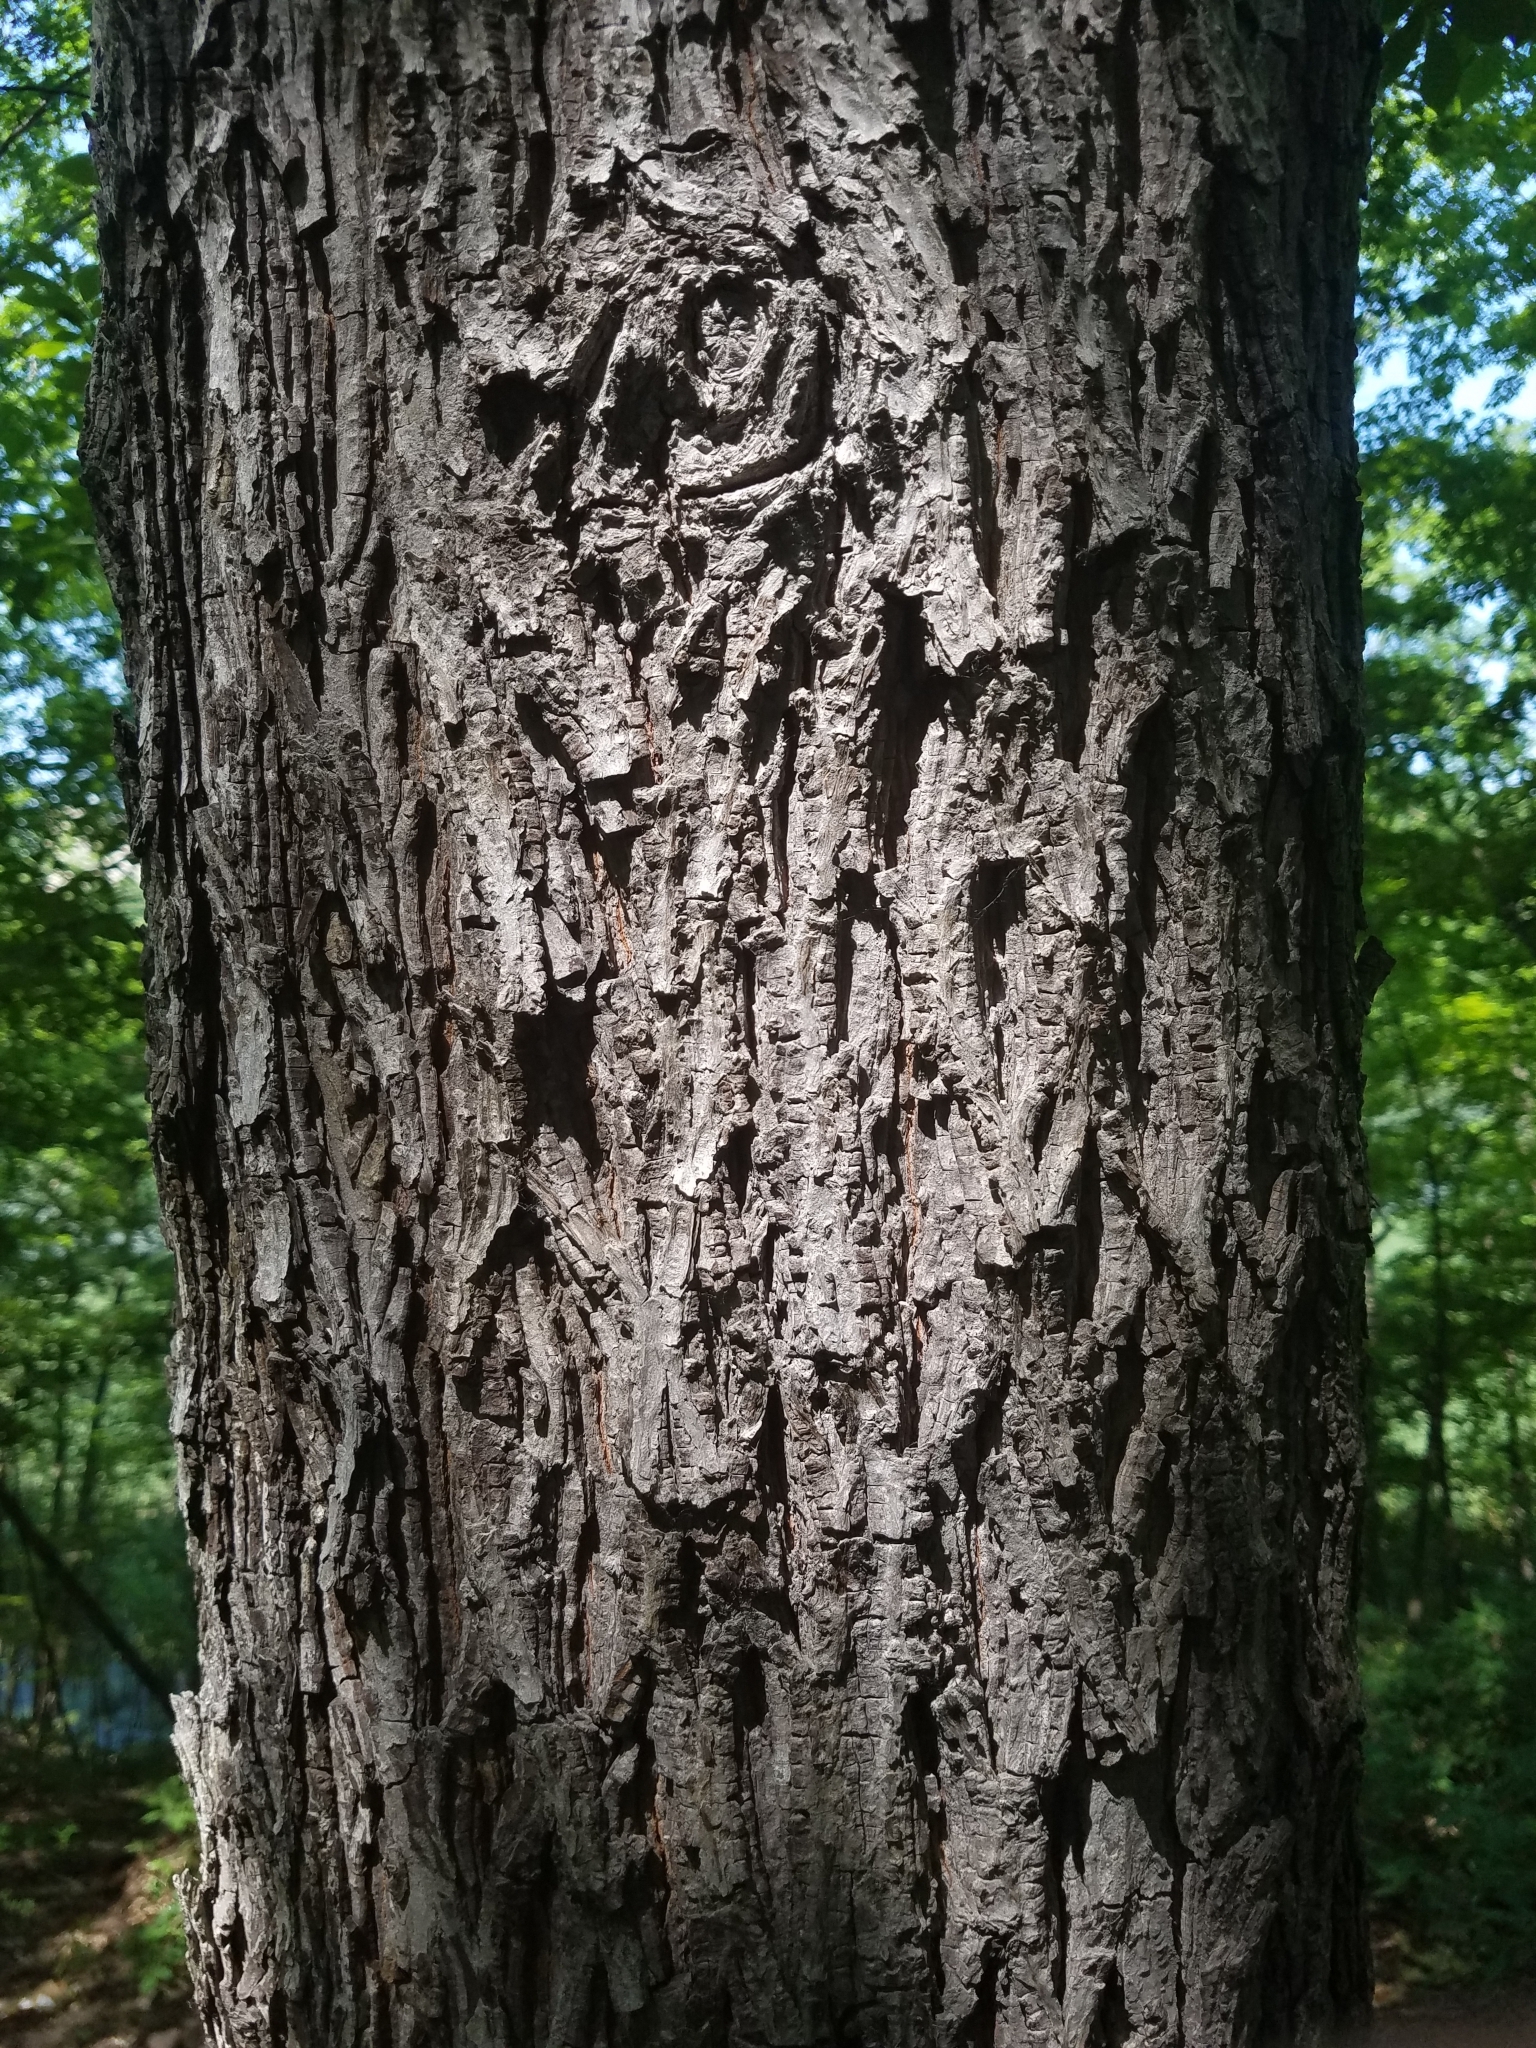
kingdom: Plantae
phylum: Tracheophyta
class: Magnoliopsida
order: Fagales
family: Juglandaceae
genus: Carya
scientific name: Carya glabra
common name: Pignut hickory
